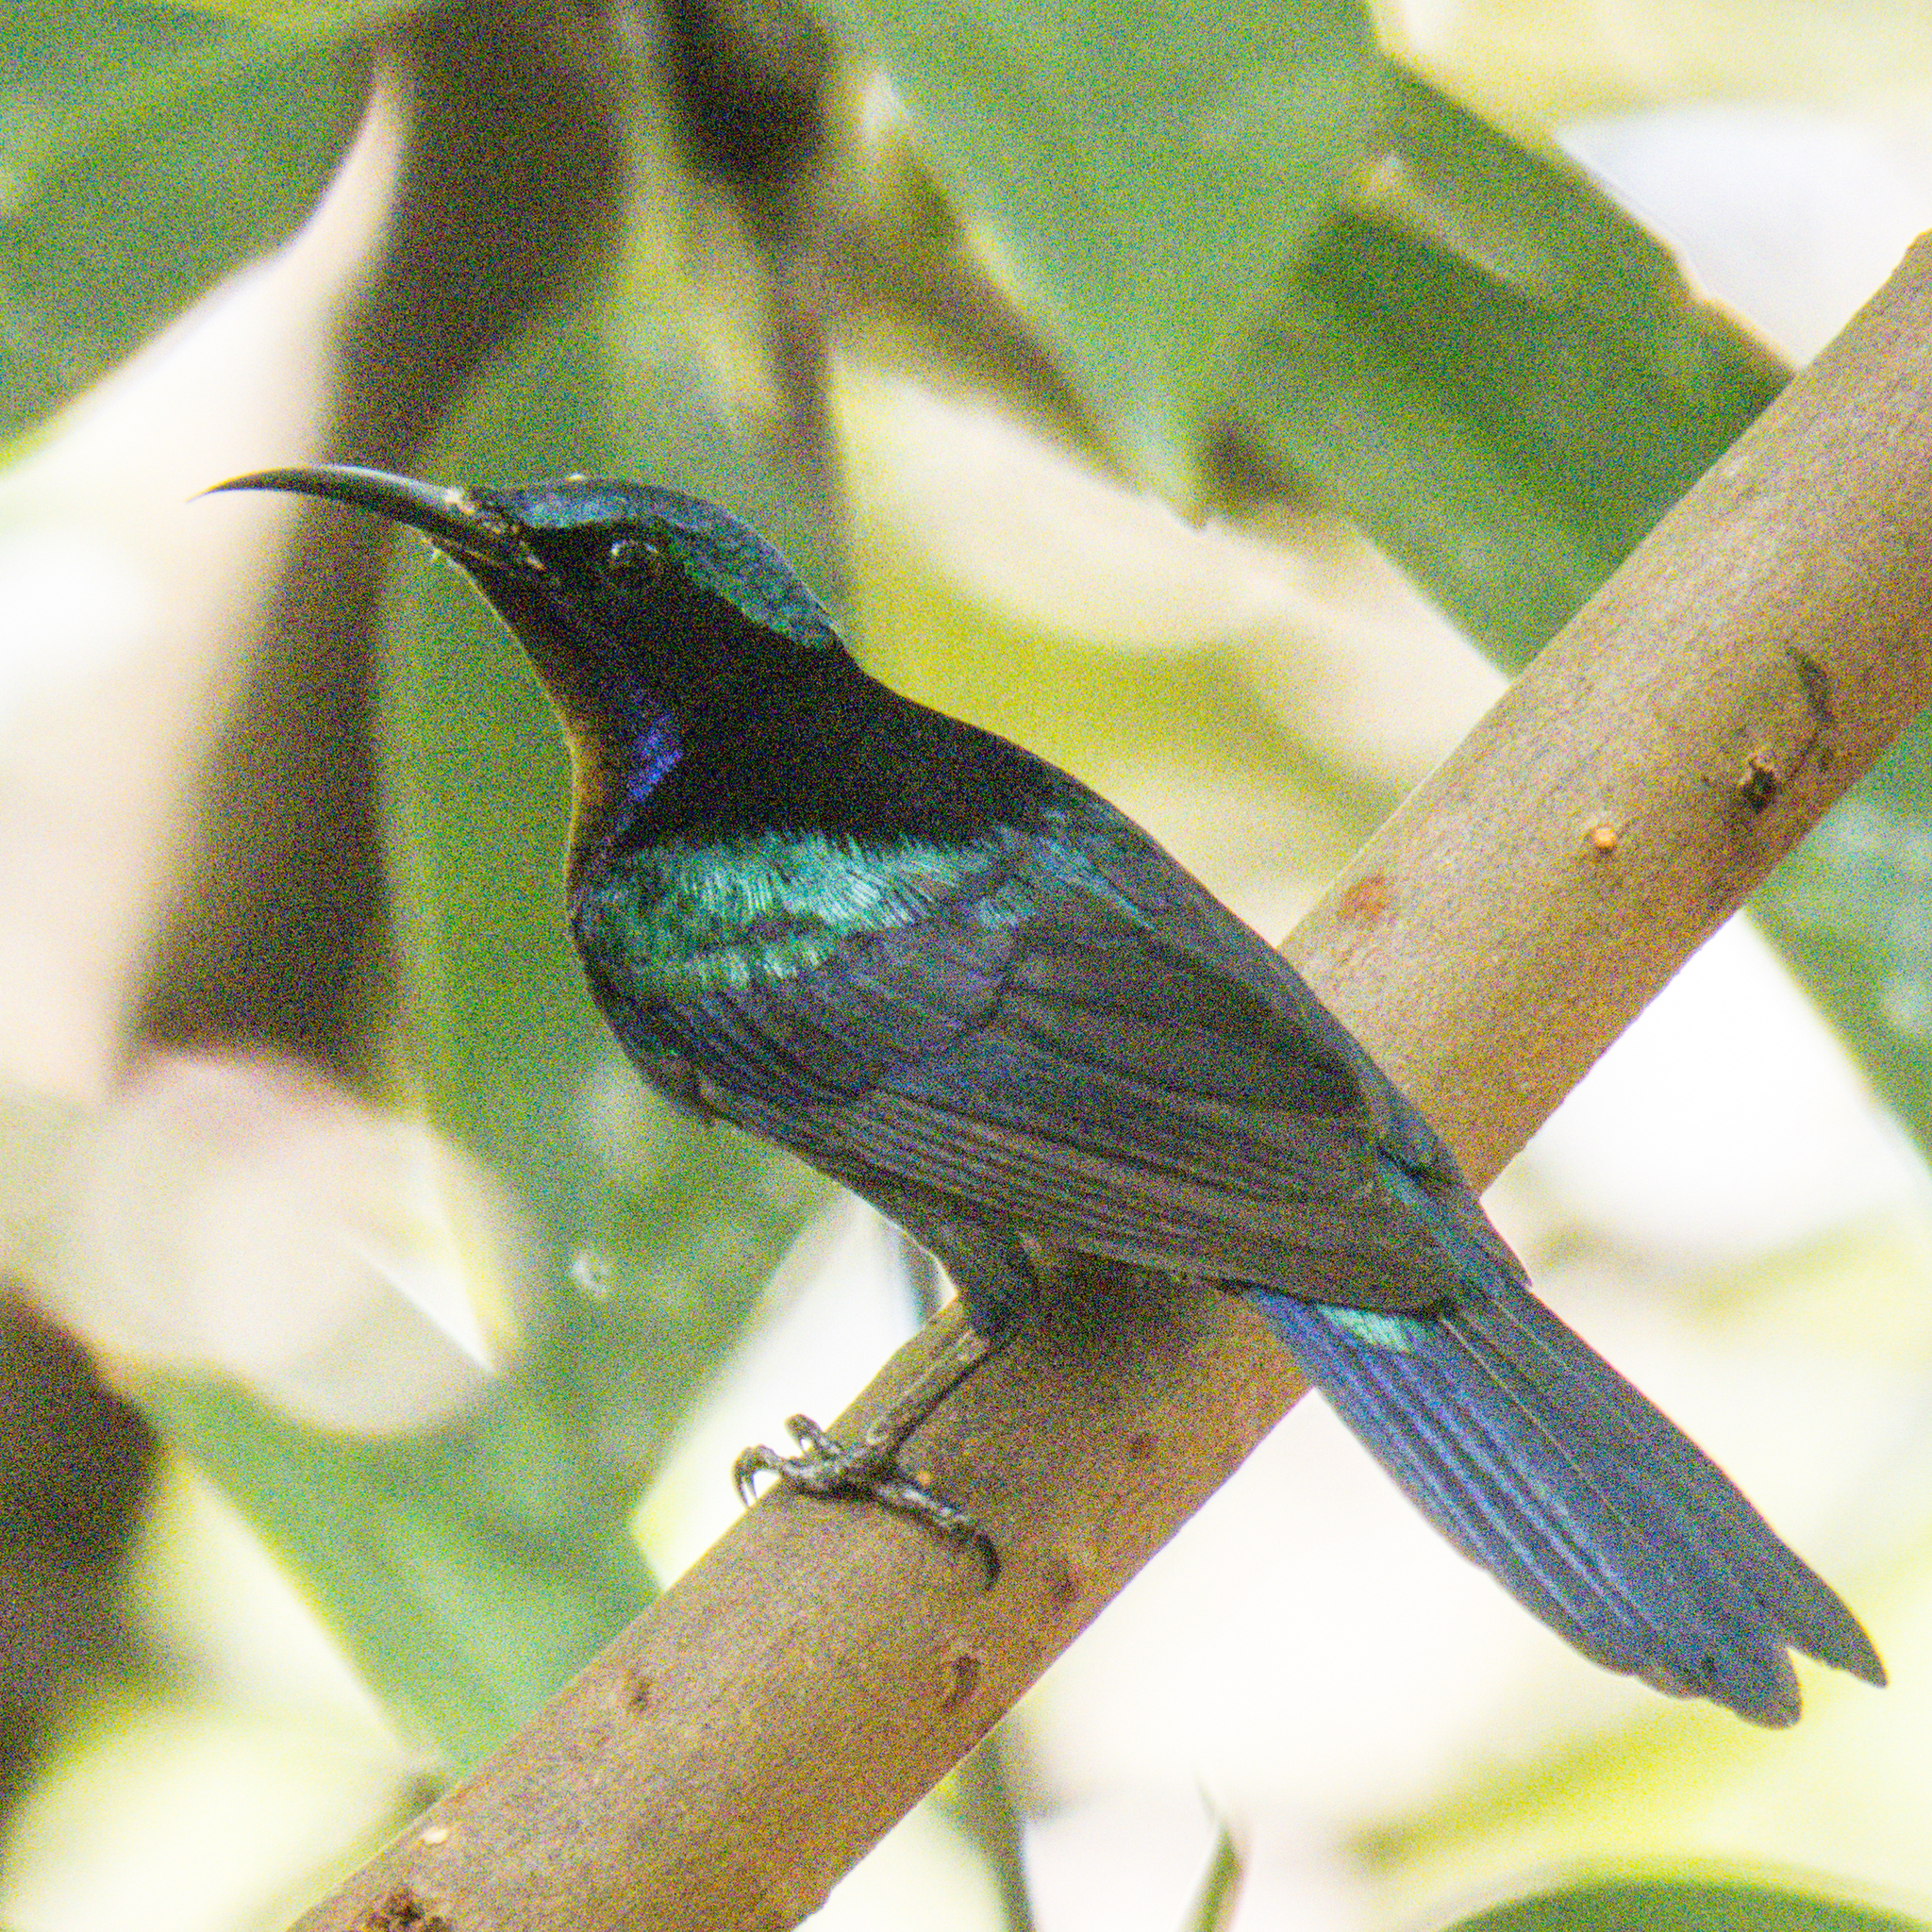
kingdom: Animalia
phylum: Chordata
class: Aves
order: Passeriformes
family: Nectariniidae
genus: Leptocoma
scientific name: Leptocoma calcostetha
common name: Copper-throated sunbird
